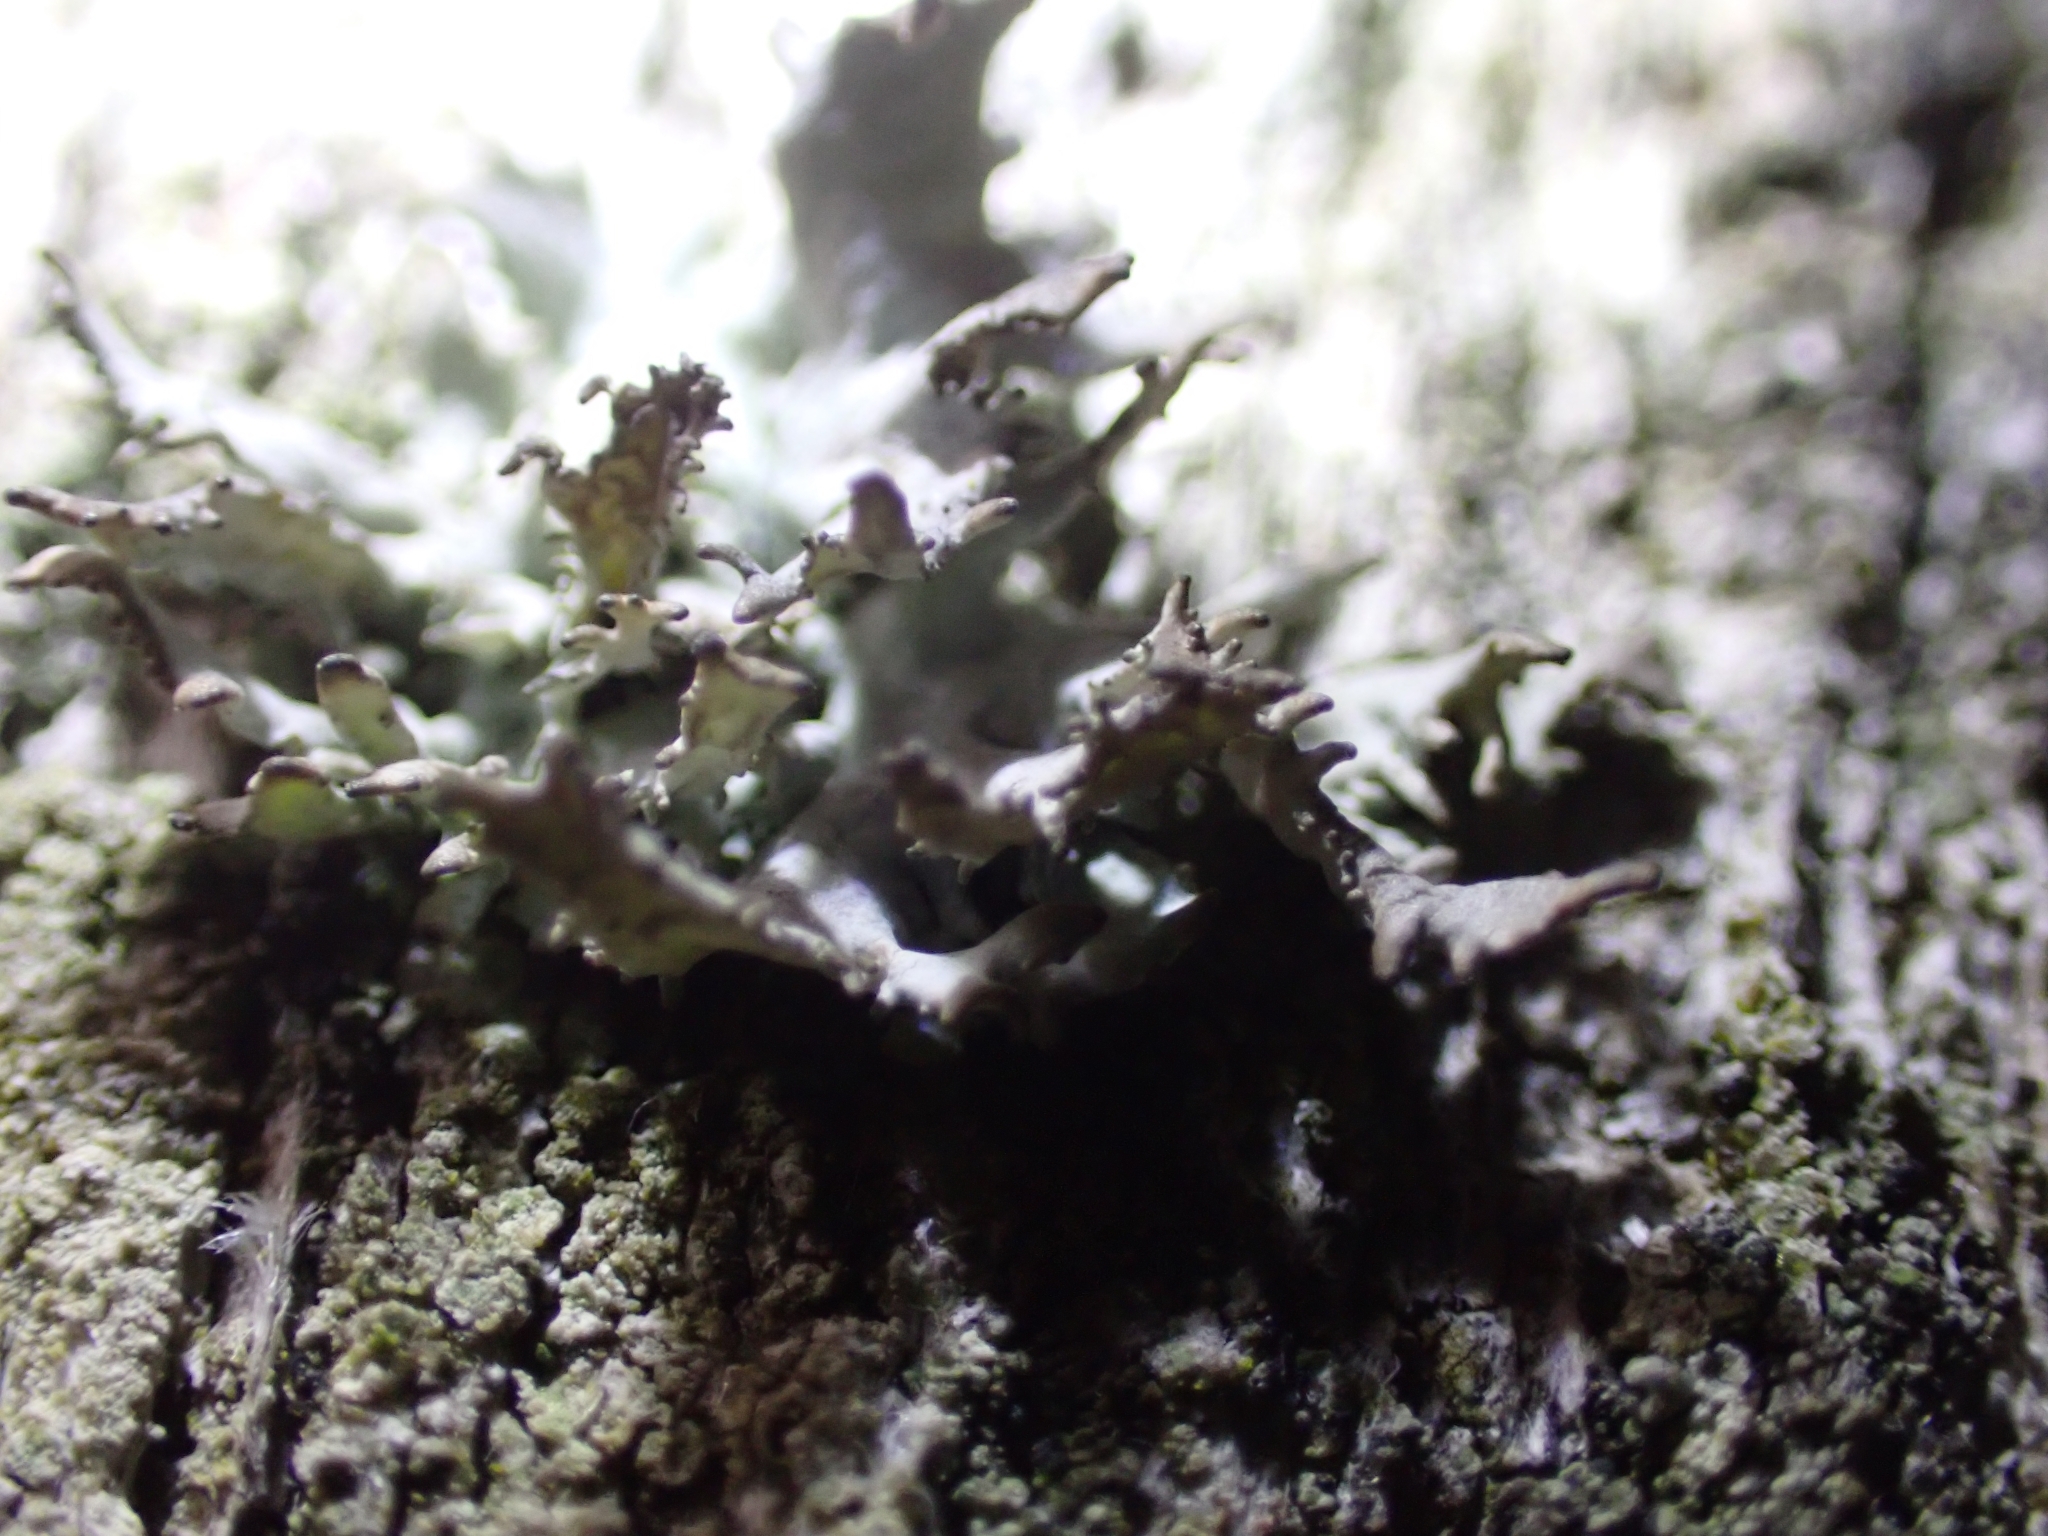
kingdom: Fungi
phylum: Ascomycota
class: Lecanoromycetes
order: Lecanorales
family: Parmeliaceae
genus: Pseudevernia
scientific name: Pseudevernia furfuracea
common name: Tree moss
